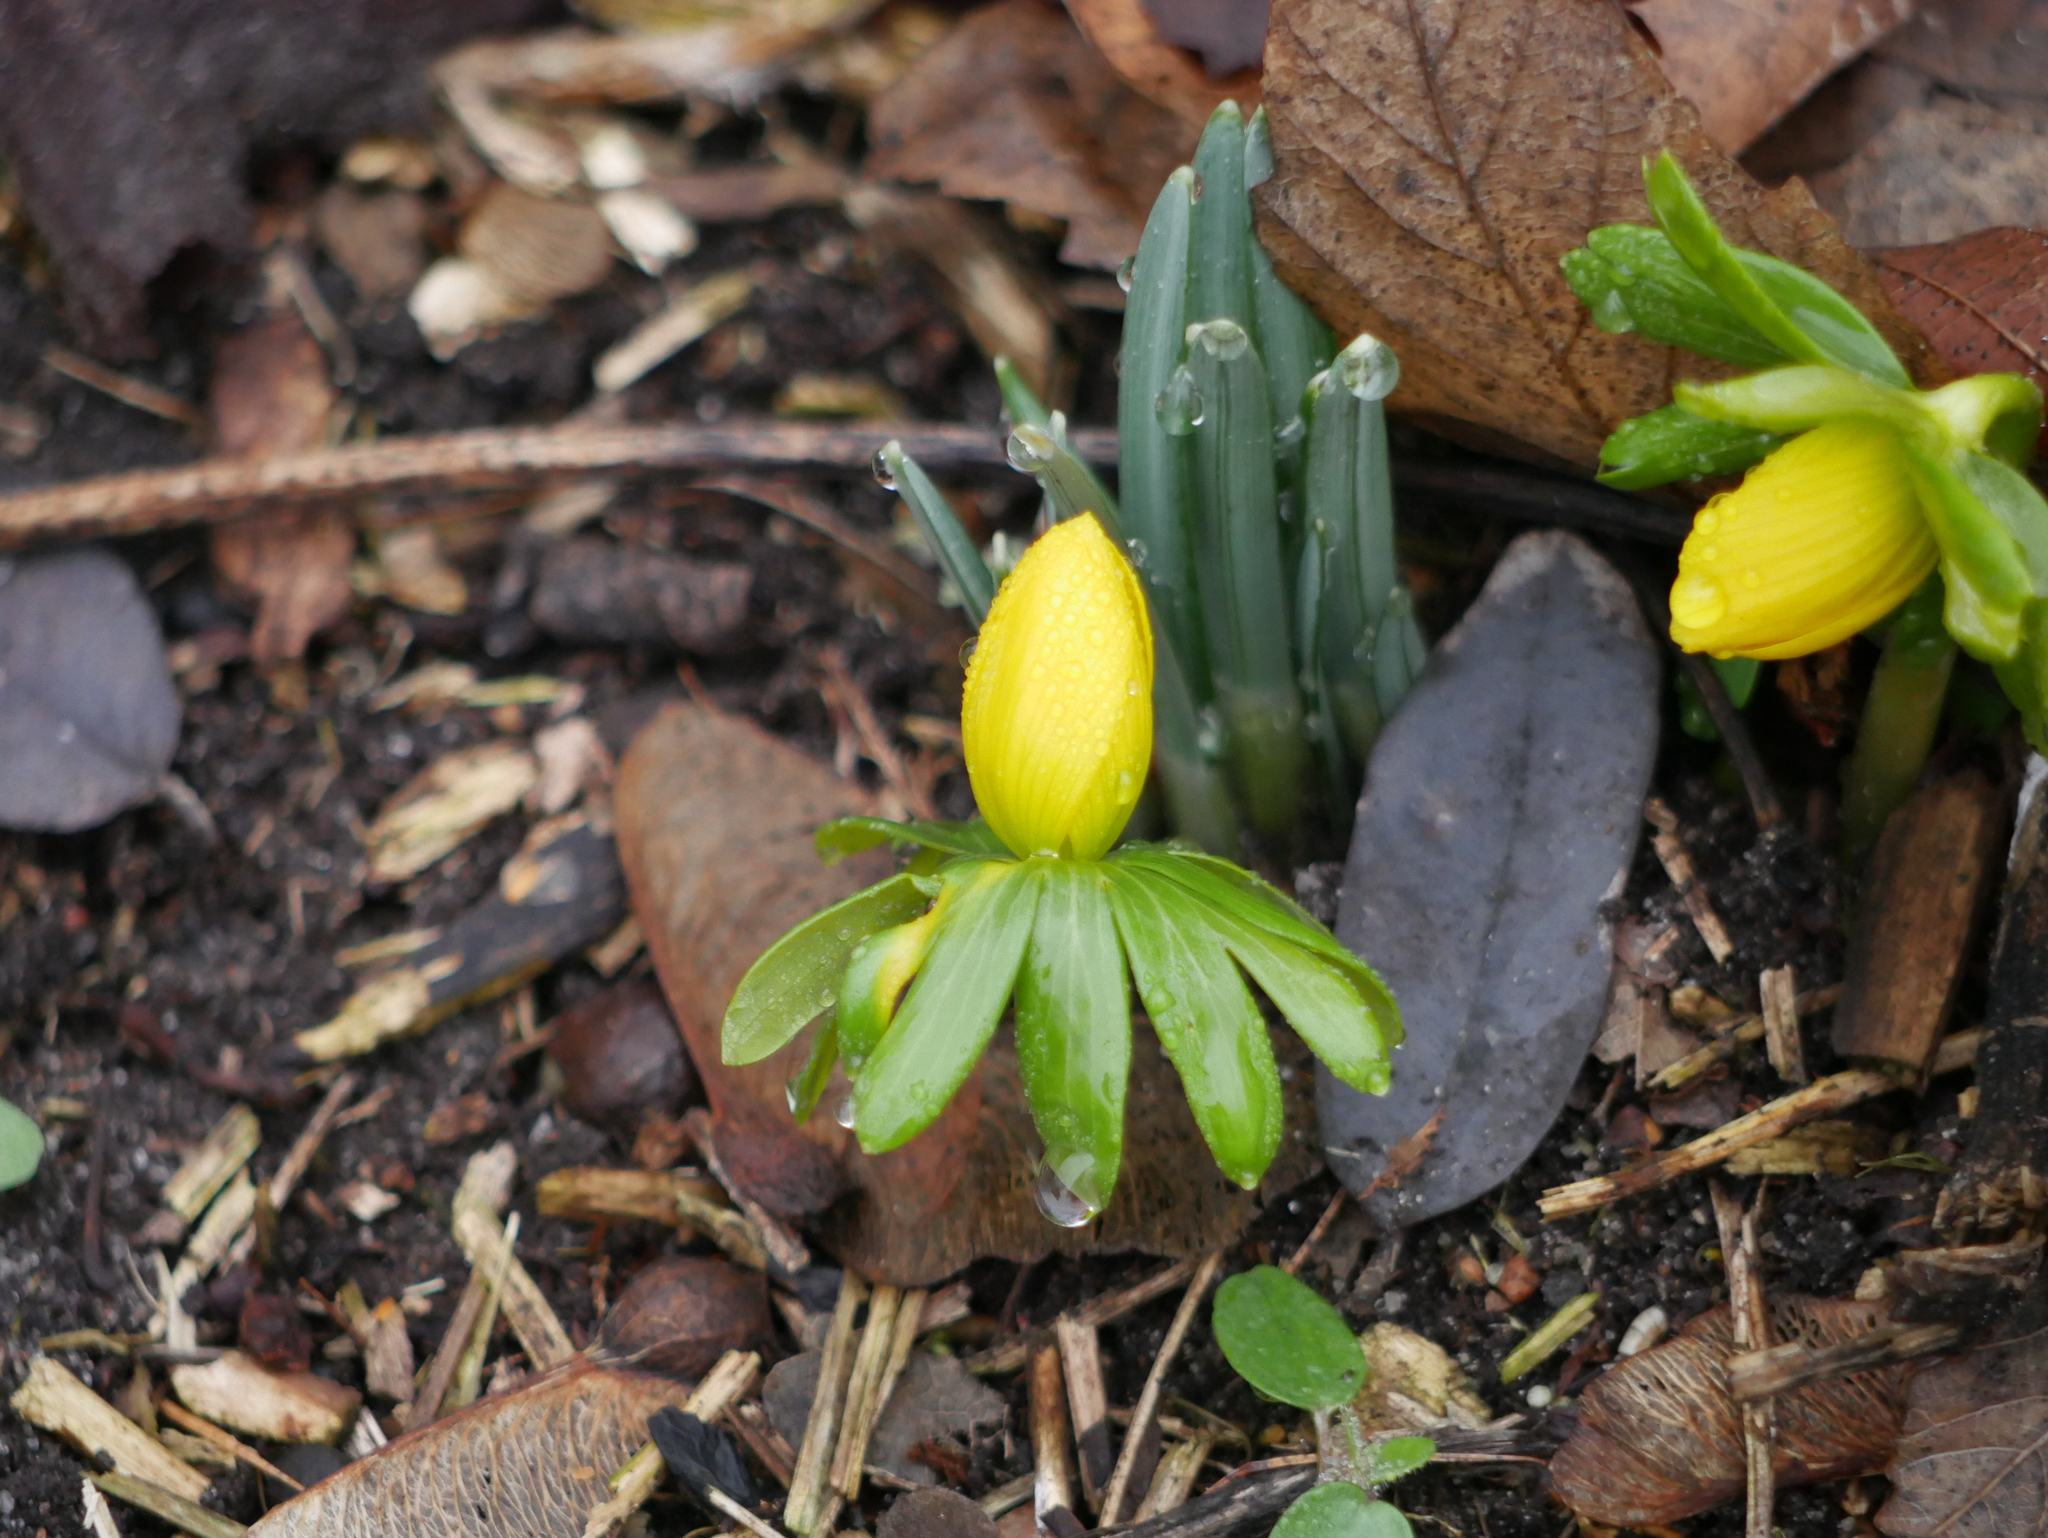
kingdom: Plantae
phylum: Tracheophyta
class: Magnoliopsida
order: Ranunculales
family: Ranunculaceae
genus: Eranthis
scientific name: Eranthis hyemalis
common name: Winter aconite
